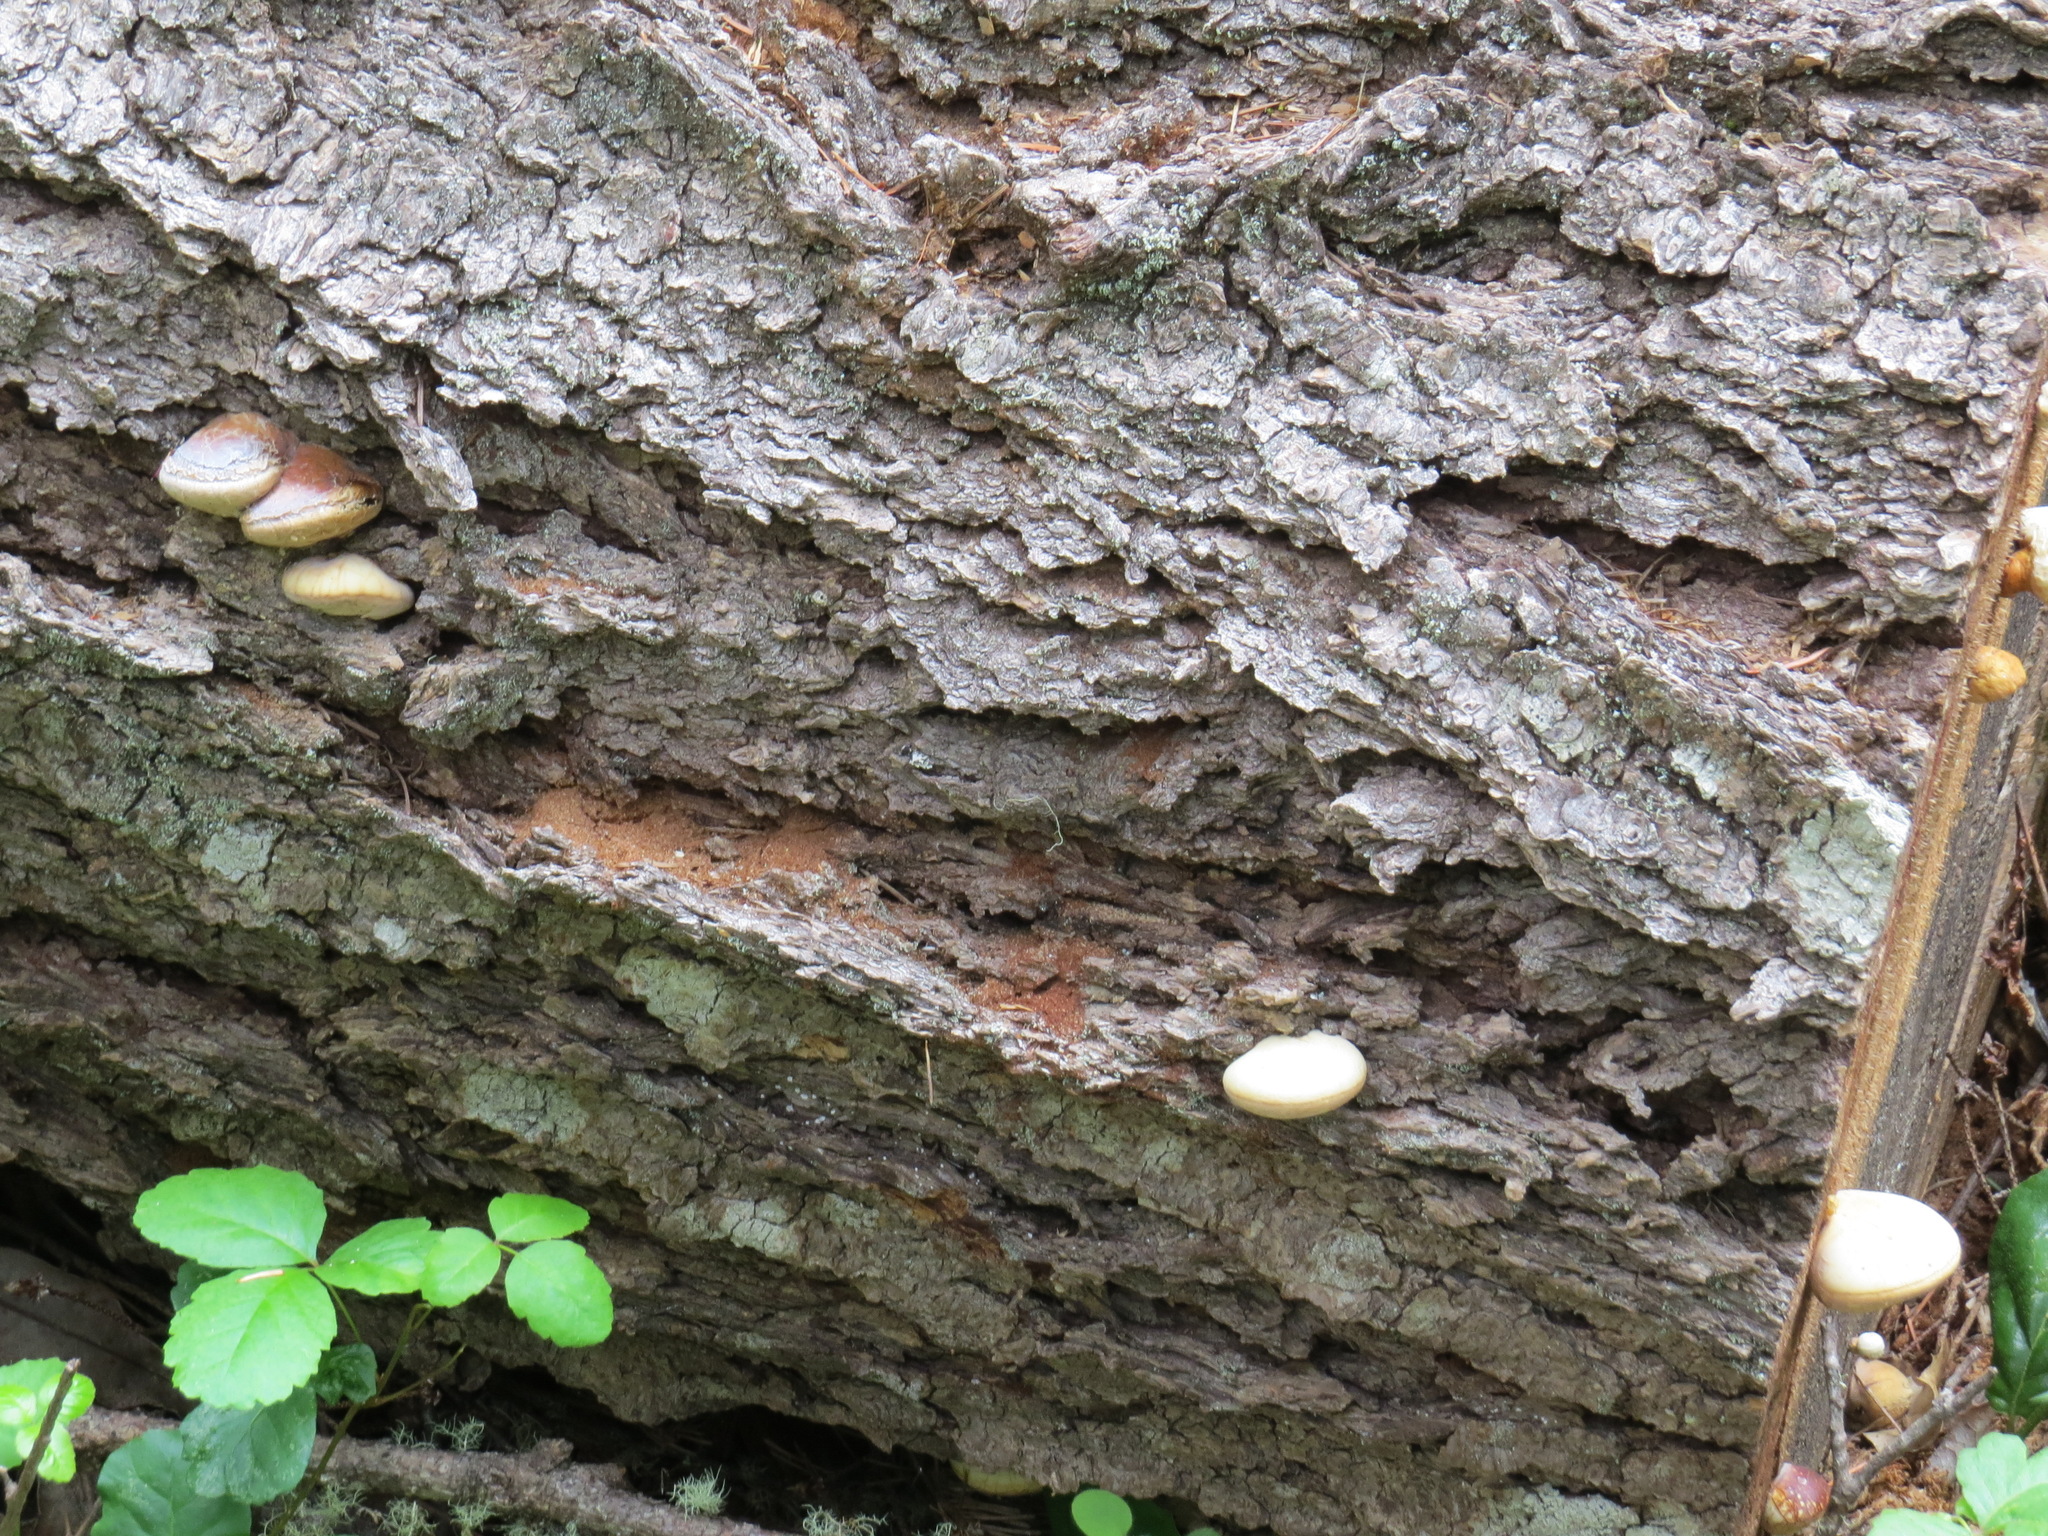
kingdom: Fungi
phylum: Basidiomycota
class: Agaricomycetes
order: Polyporales
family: Polyporaceae
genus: Cryptoporus
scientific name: Cryptoporus volvatus
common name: Veiled polypore
